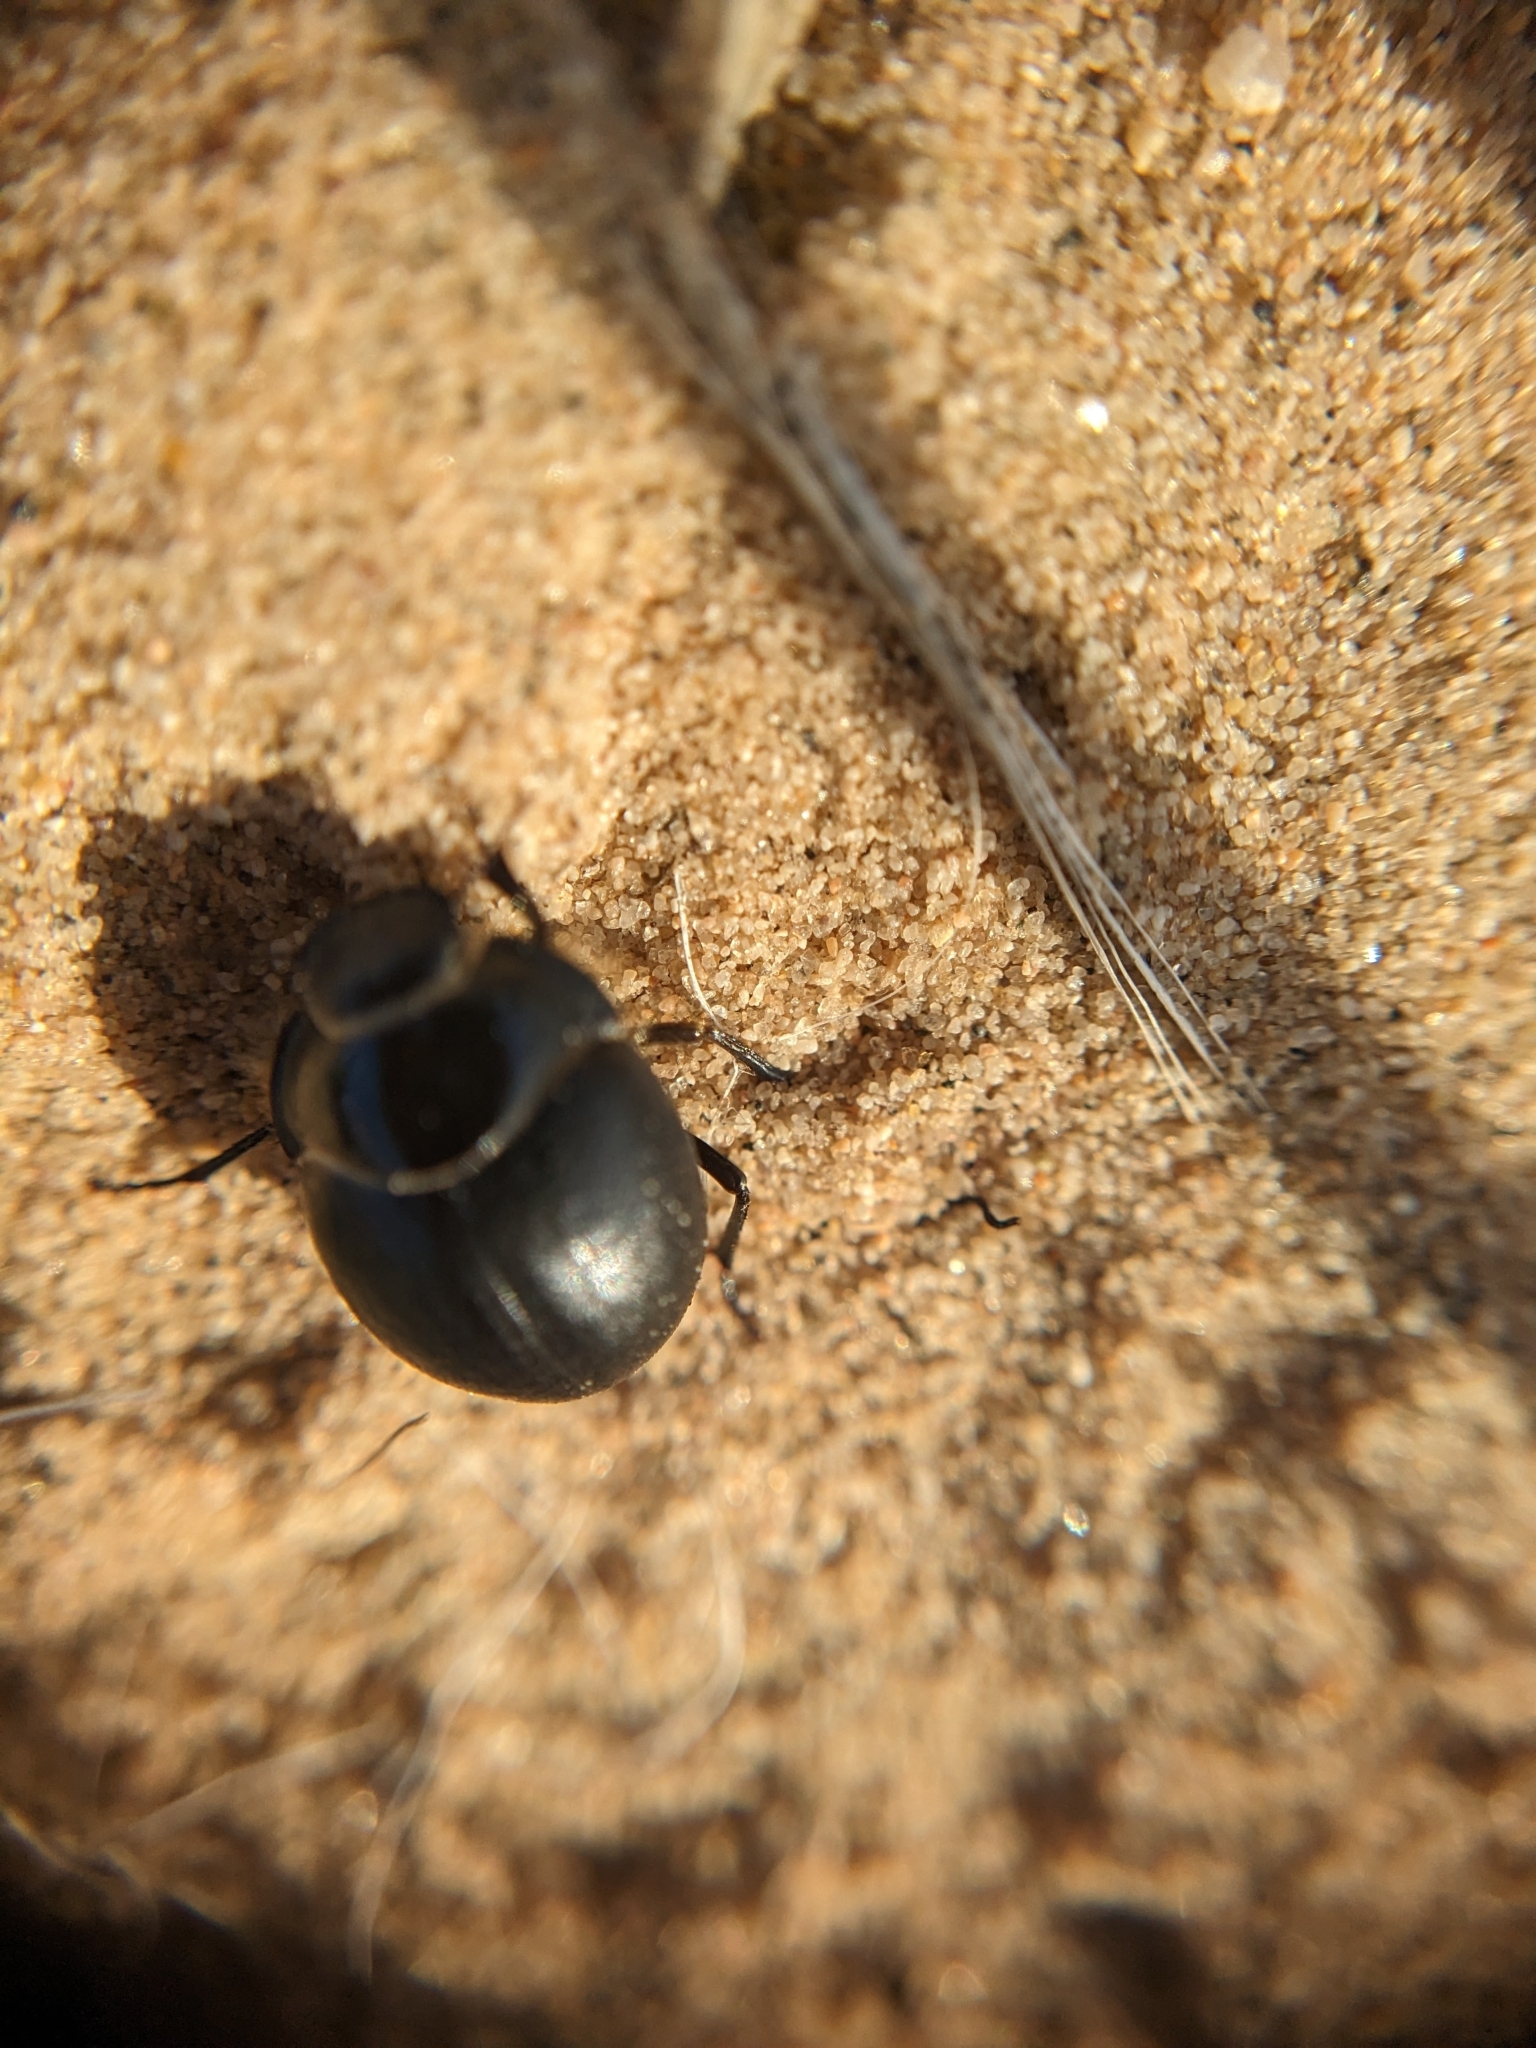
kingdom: Animalia
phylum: Arthropoda
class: Insecta
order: Coleoptera
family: Tenebrionidae
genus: Eusattus
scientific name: Eusattus muricatus
